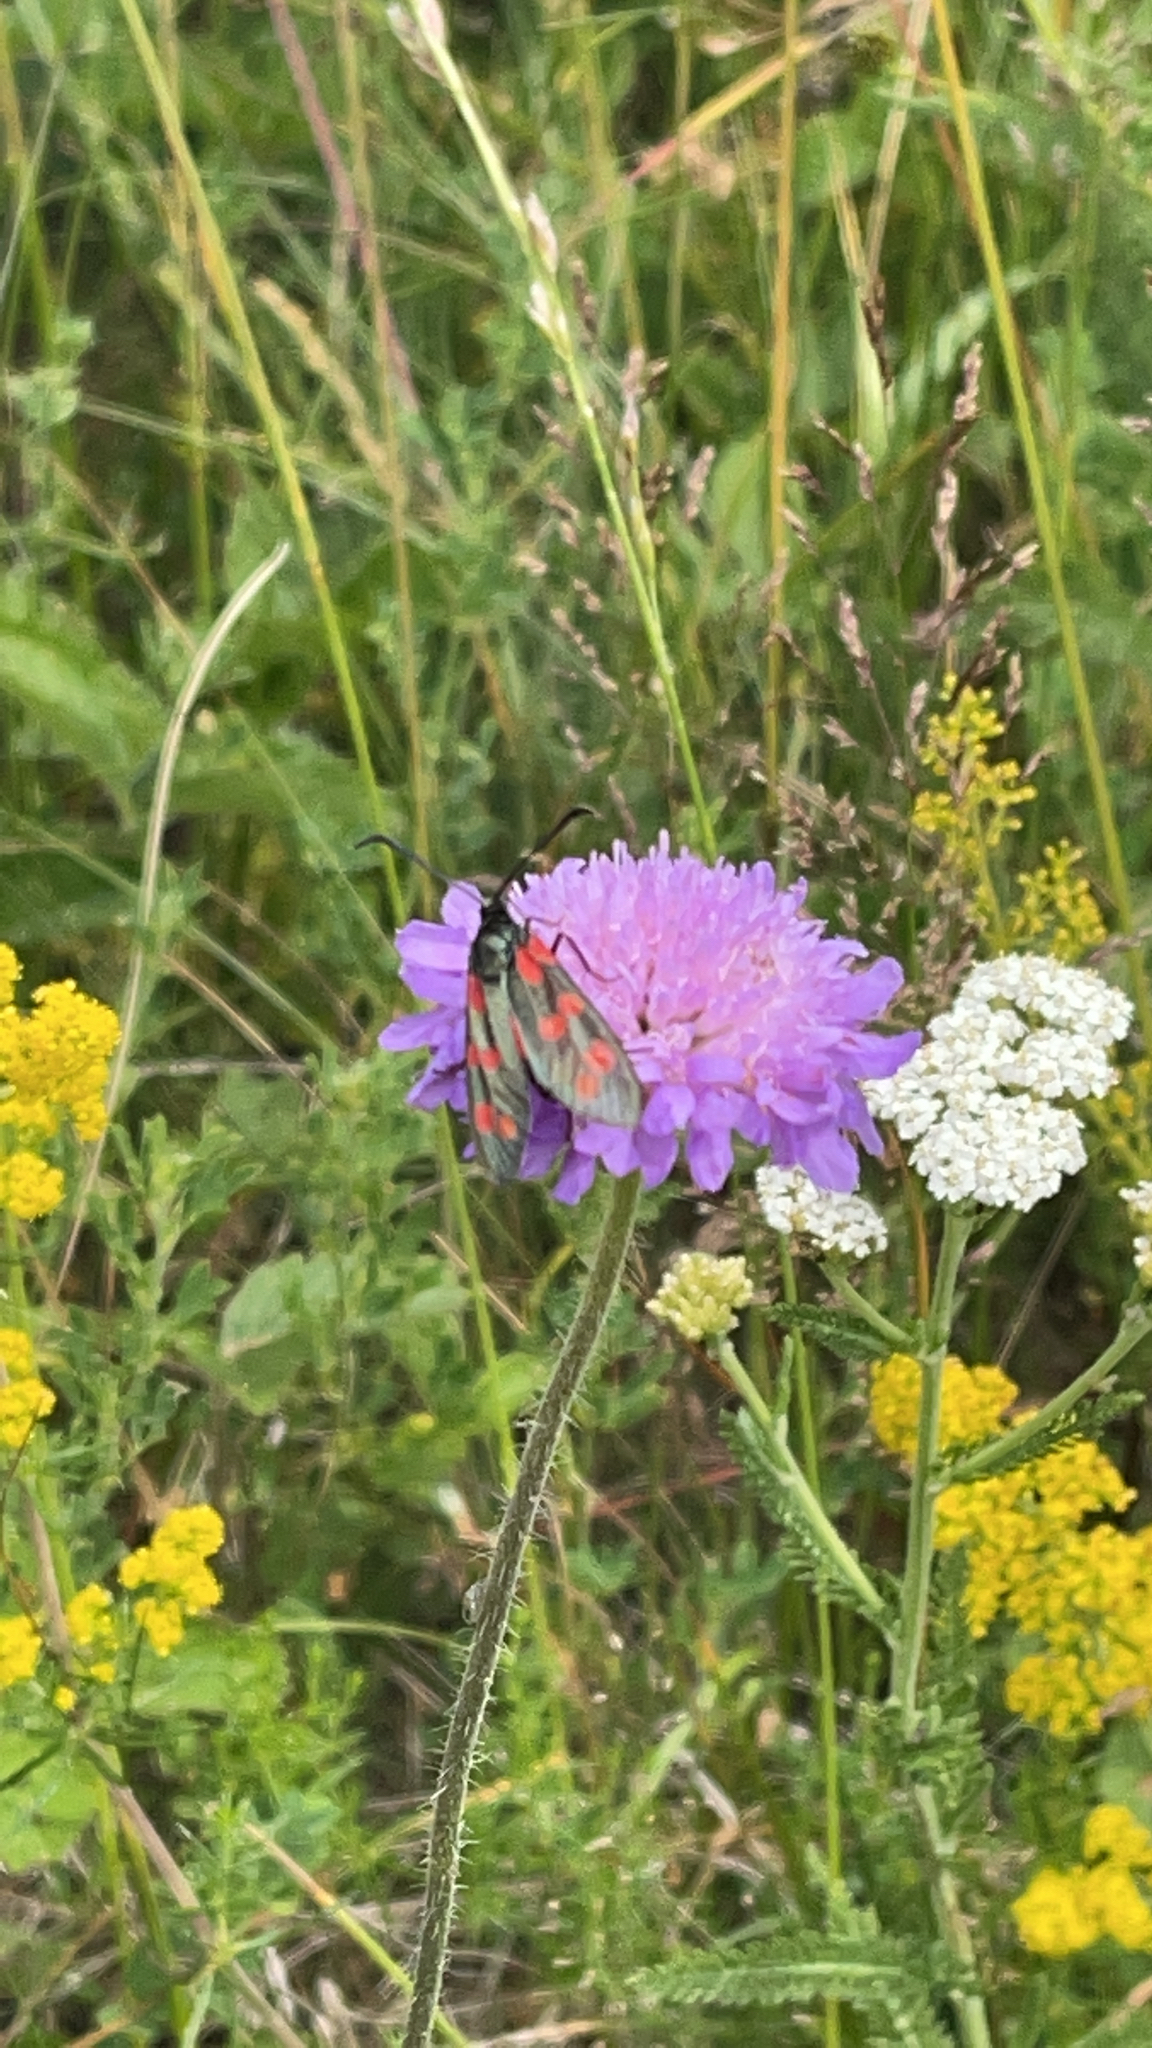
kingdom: Animalia
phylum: Arthropoda
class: Insecta
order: Lepidoptera
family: Zygaenidae
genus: Zygaena
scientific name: Zygaena filipendulae
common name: Six-spot burnet
